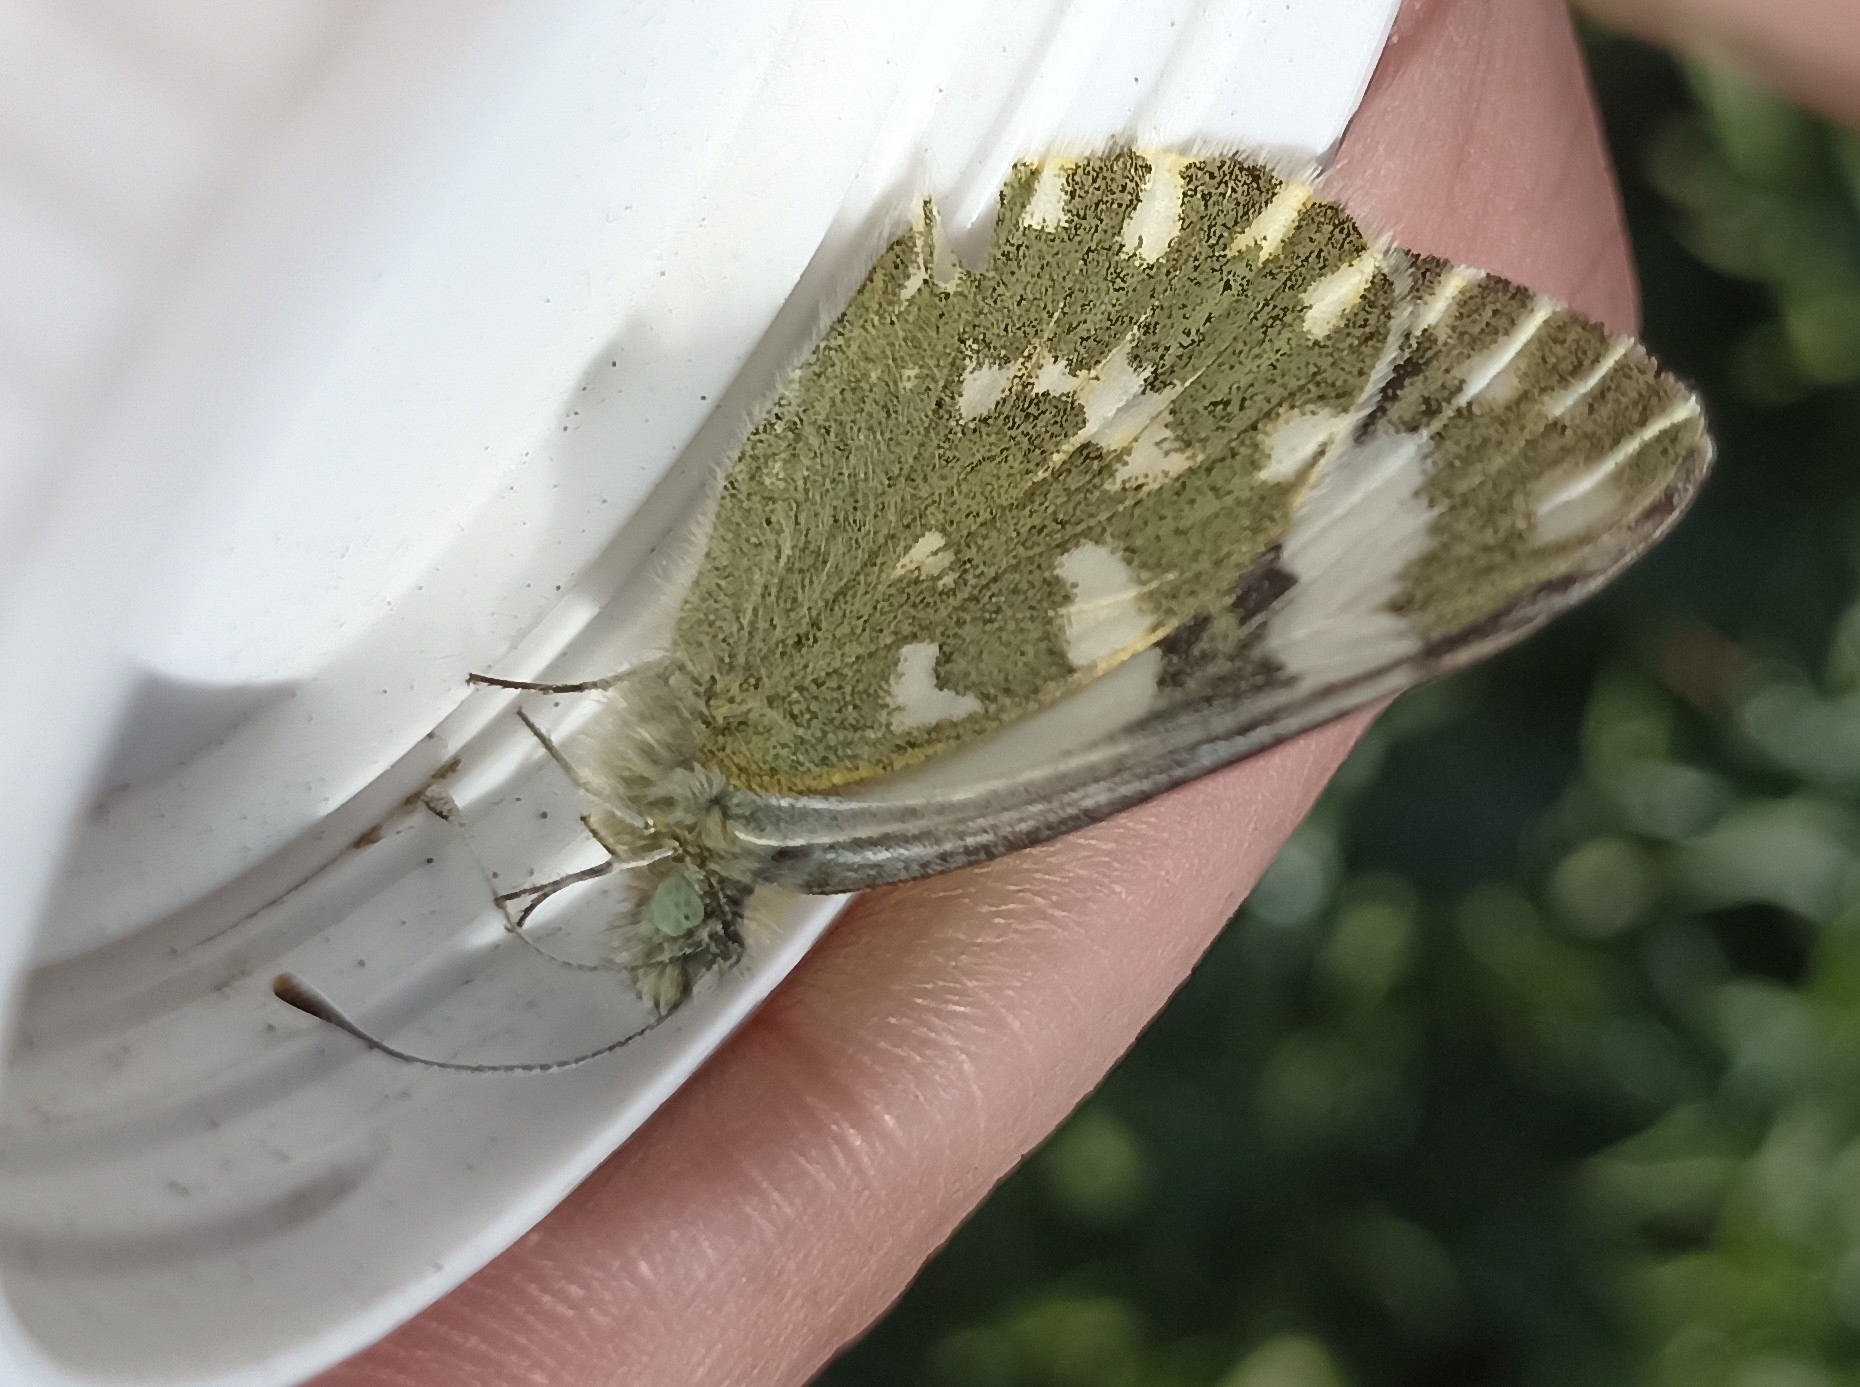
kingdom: Animalia
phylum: Arthropoda
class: Insecta
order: Lepidoptera
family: Pieridae
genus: Pontia
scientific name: Pontia daplidice
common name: Bath white
